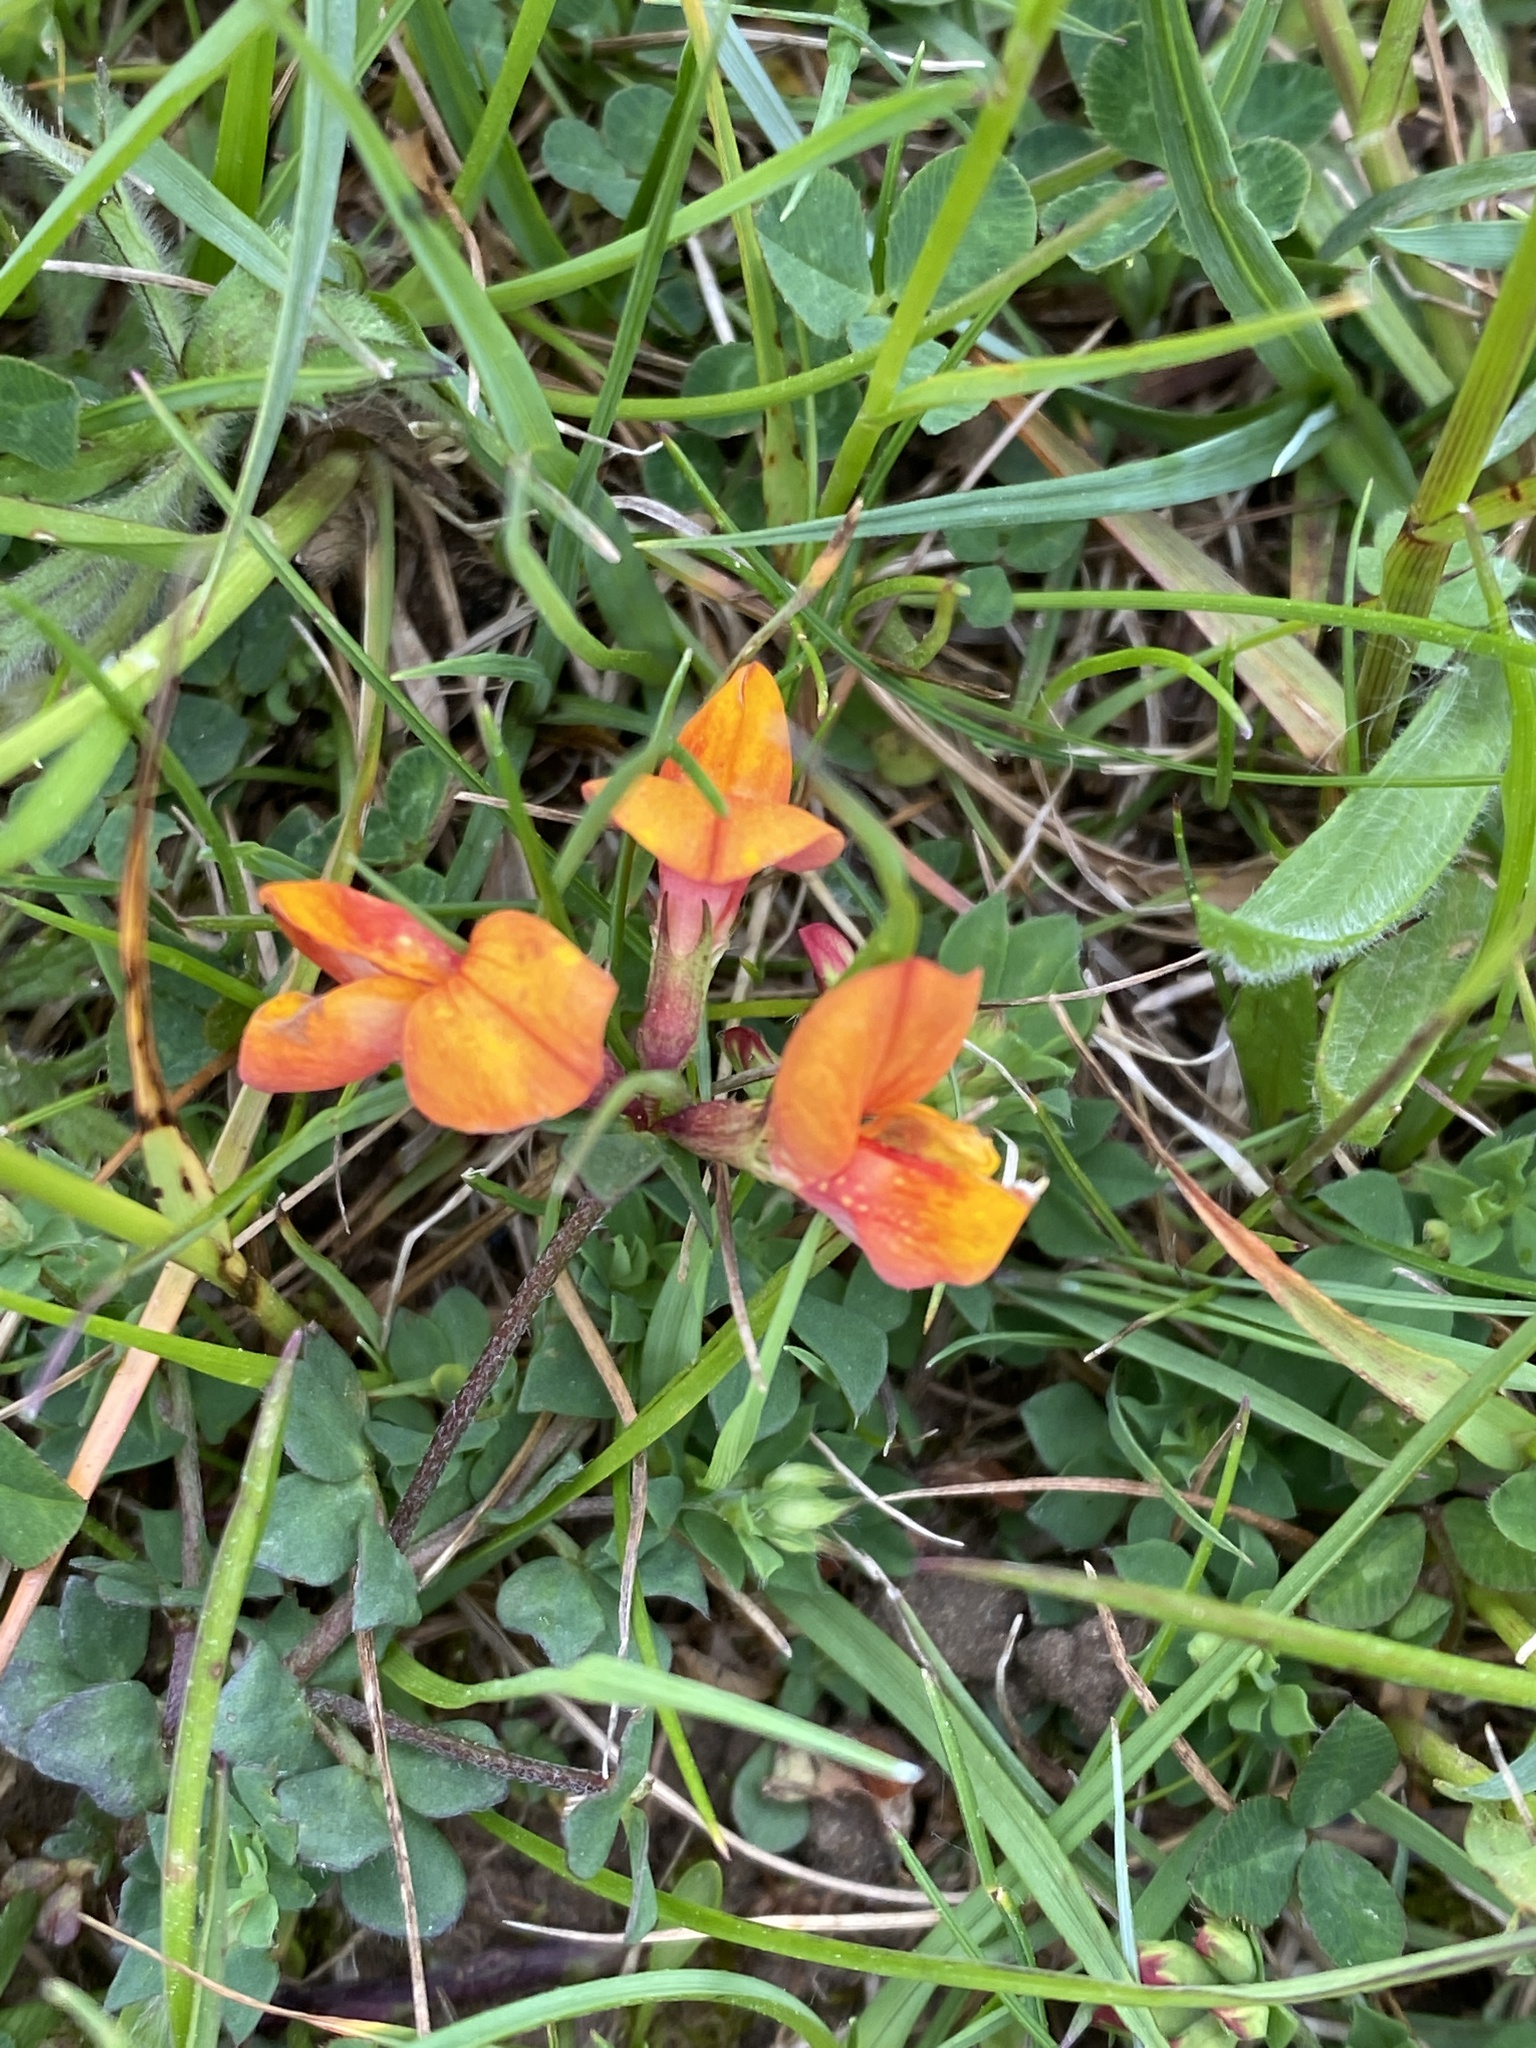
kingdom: Plantae
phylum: Tracheophyta
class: Magnoliopsida
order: Fabales
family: Fabaceae
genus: Lotus
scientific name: Lotus corniculatus
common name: Common bird's-foot-trefoil
